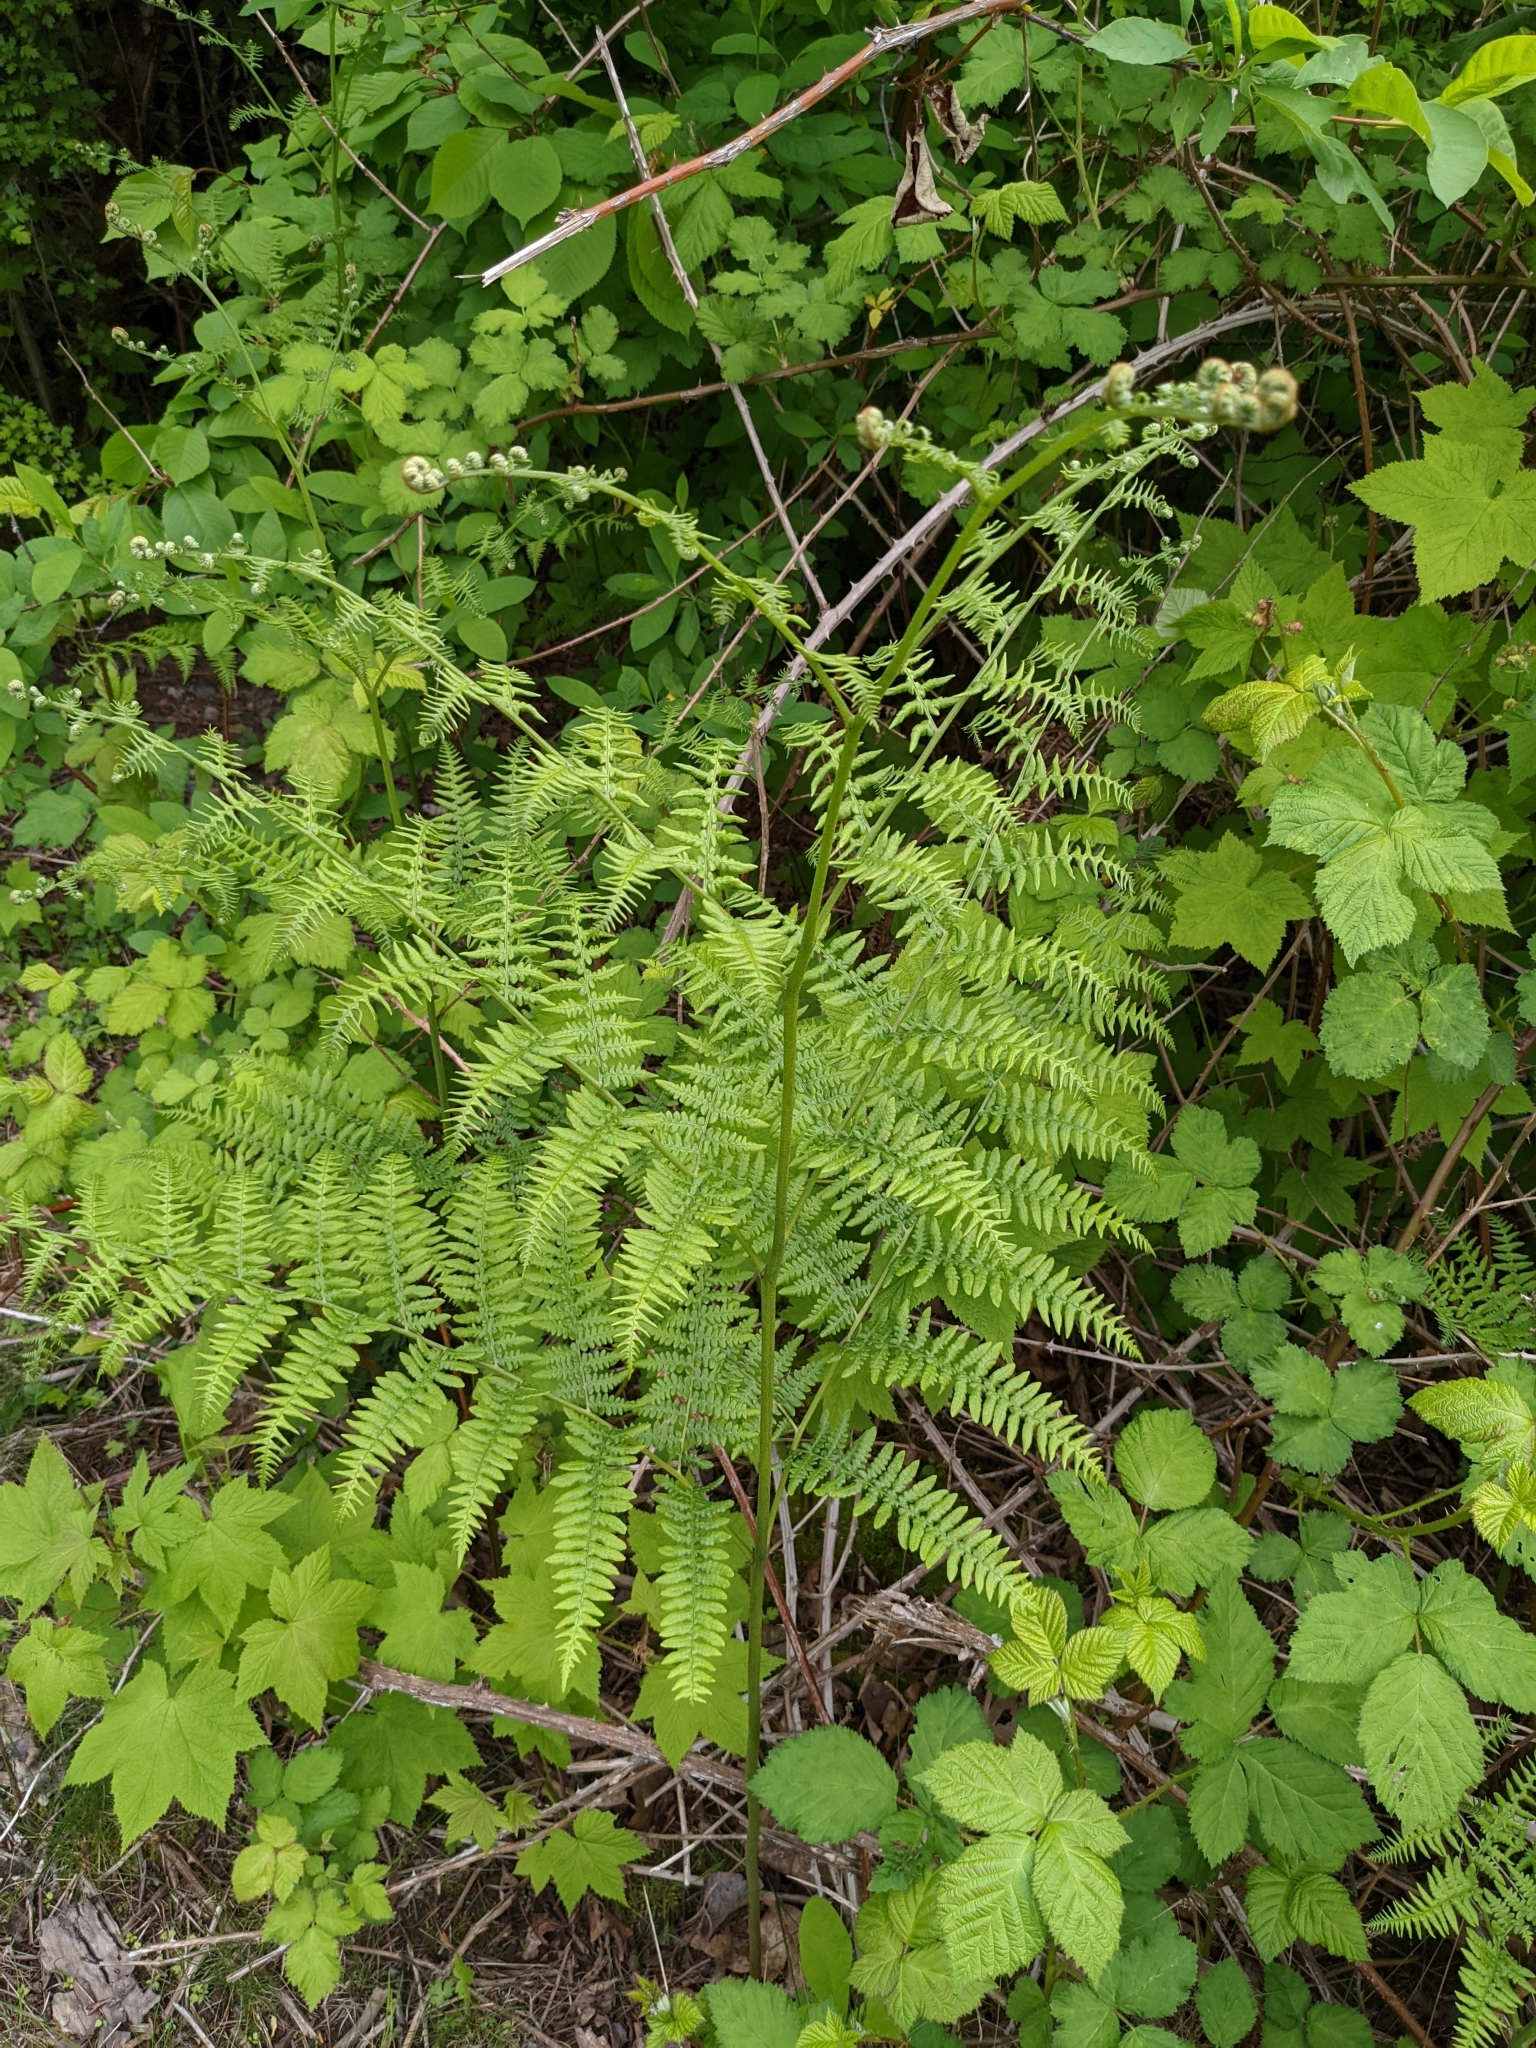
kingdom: Plantae
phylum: Tracheophyta
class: Polypodiopsida
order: Polypodiales
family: Dennstaedtiaceae
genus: Pteridium
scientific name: Pteridium aquilinum
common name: Bracken
